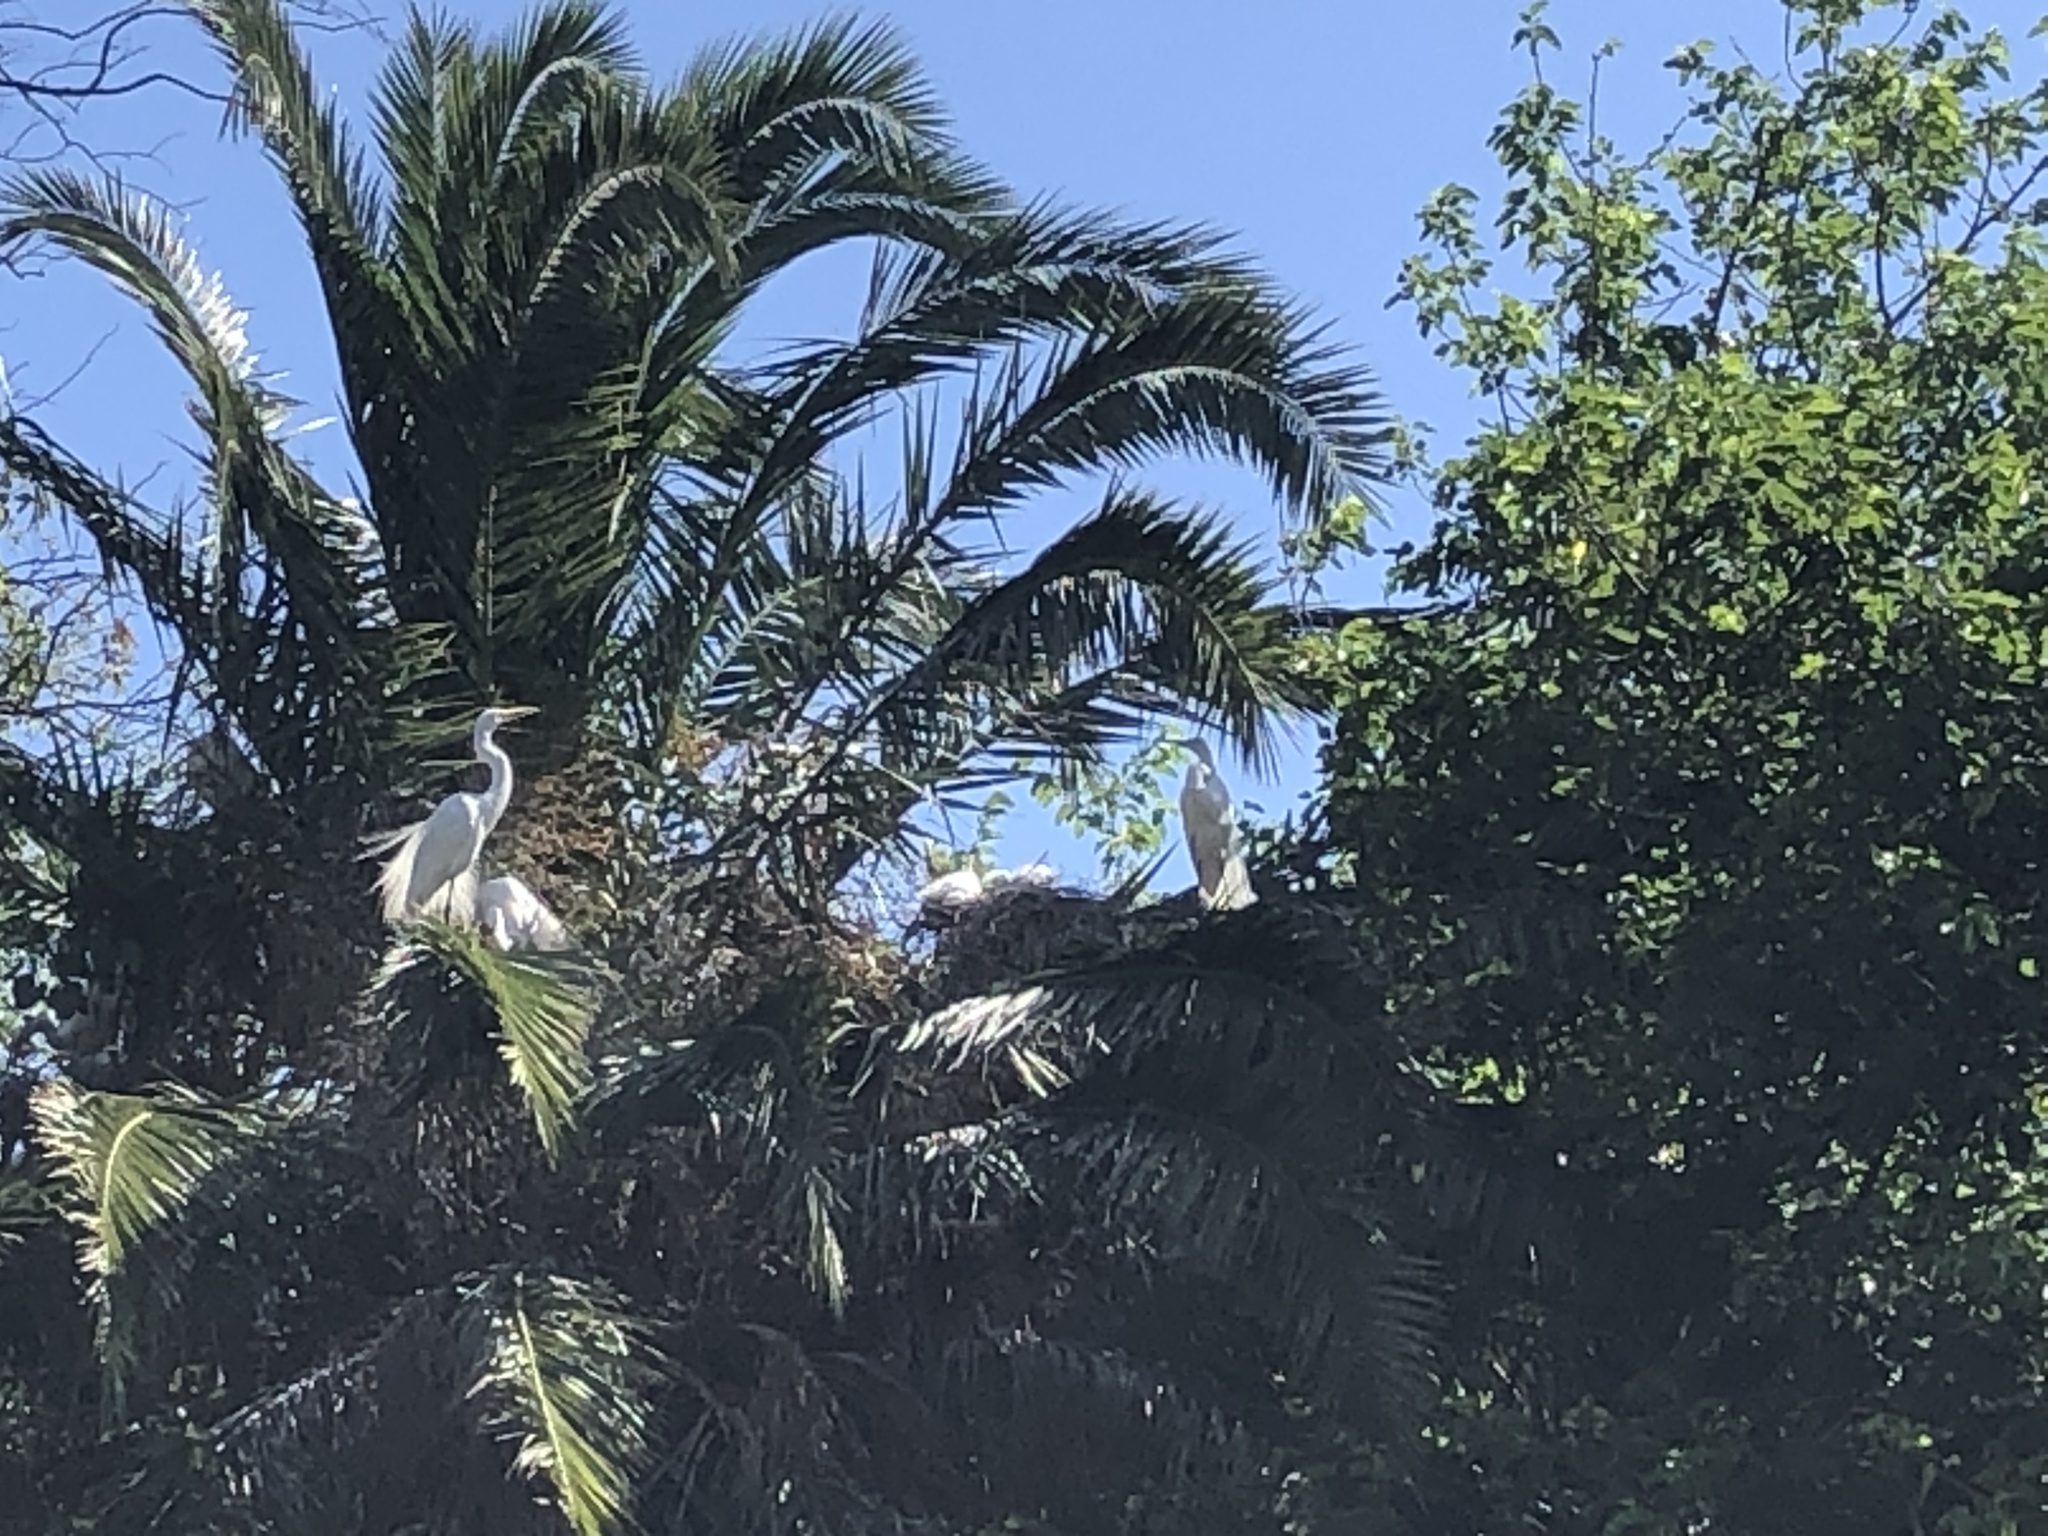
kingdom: Animalia
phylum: Chordata
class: Aves
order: Pelecaniformes
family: Ardeidae
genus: Ardea
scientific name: Ardea alba
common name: Great egret
